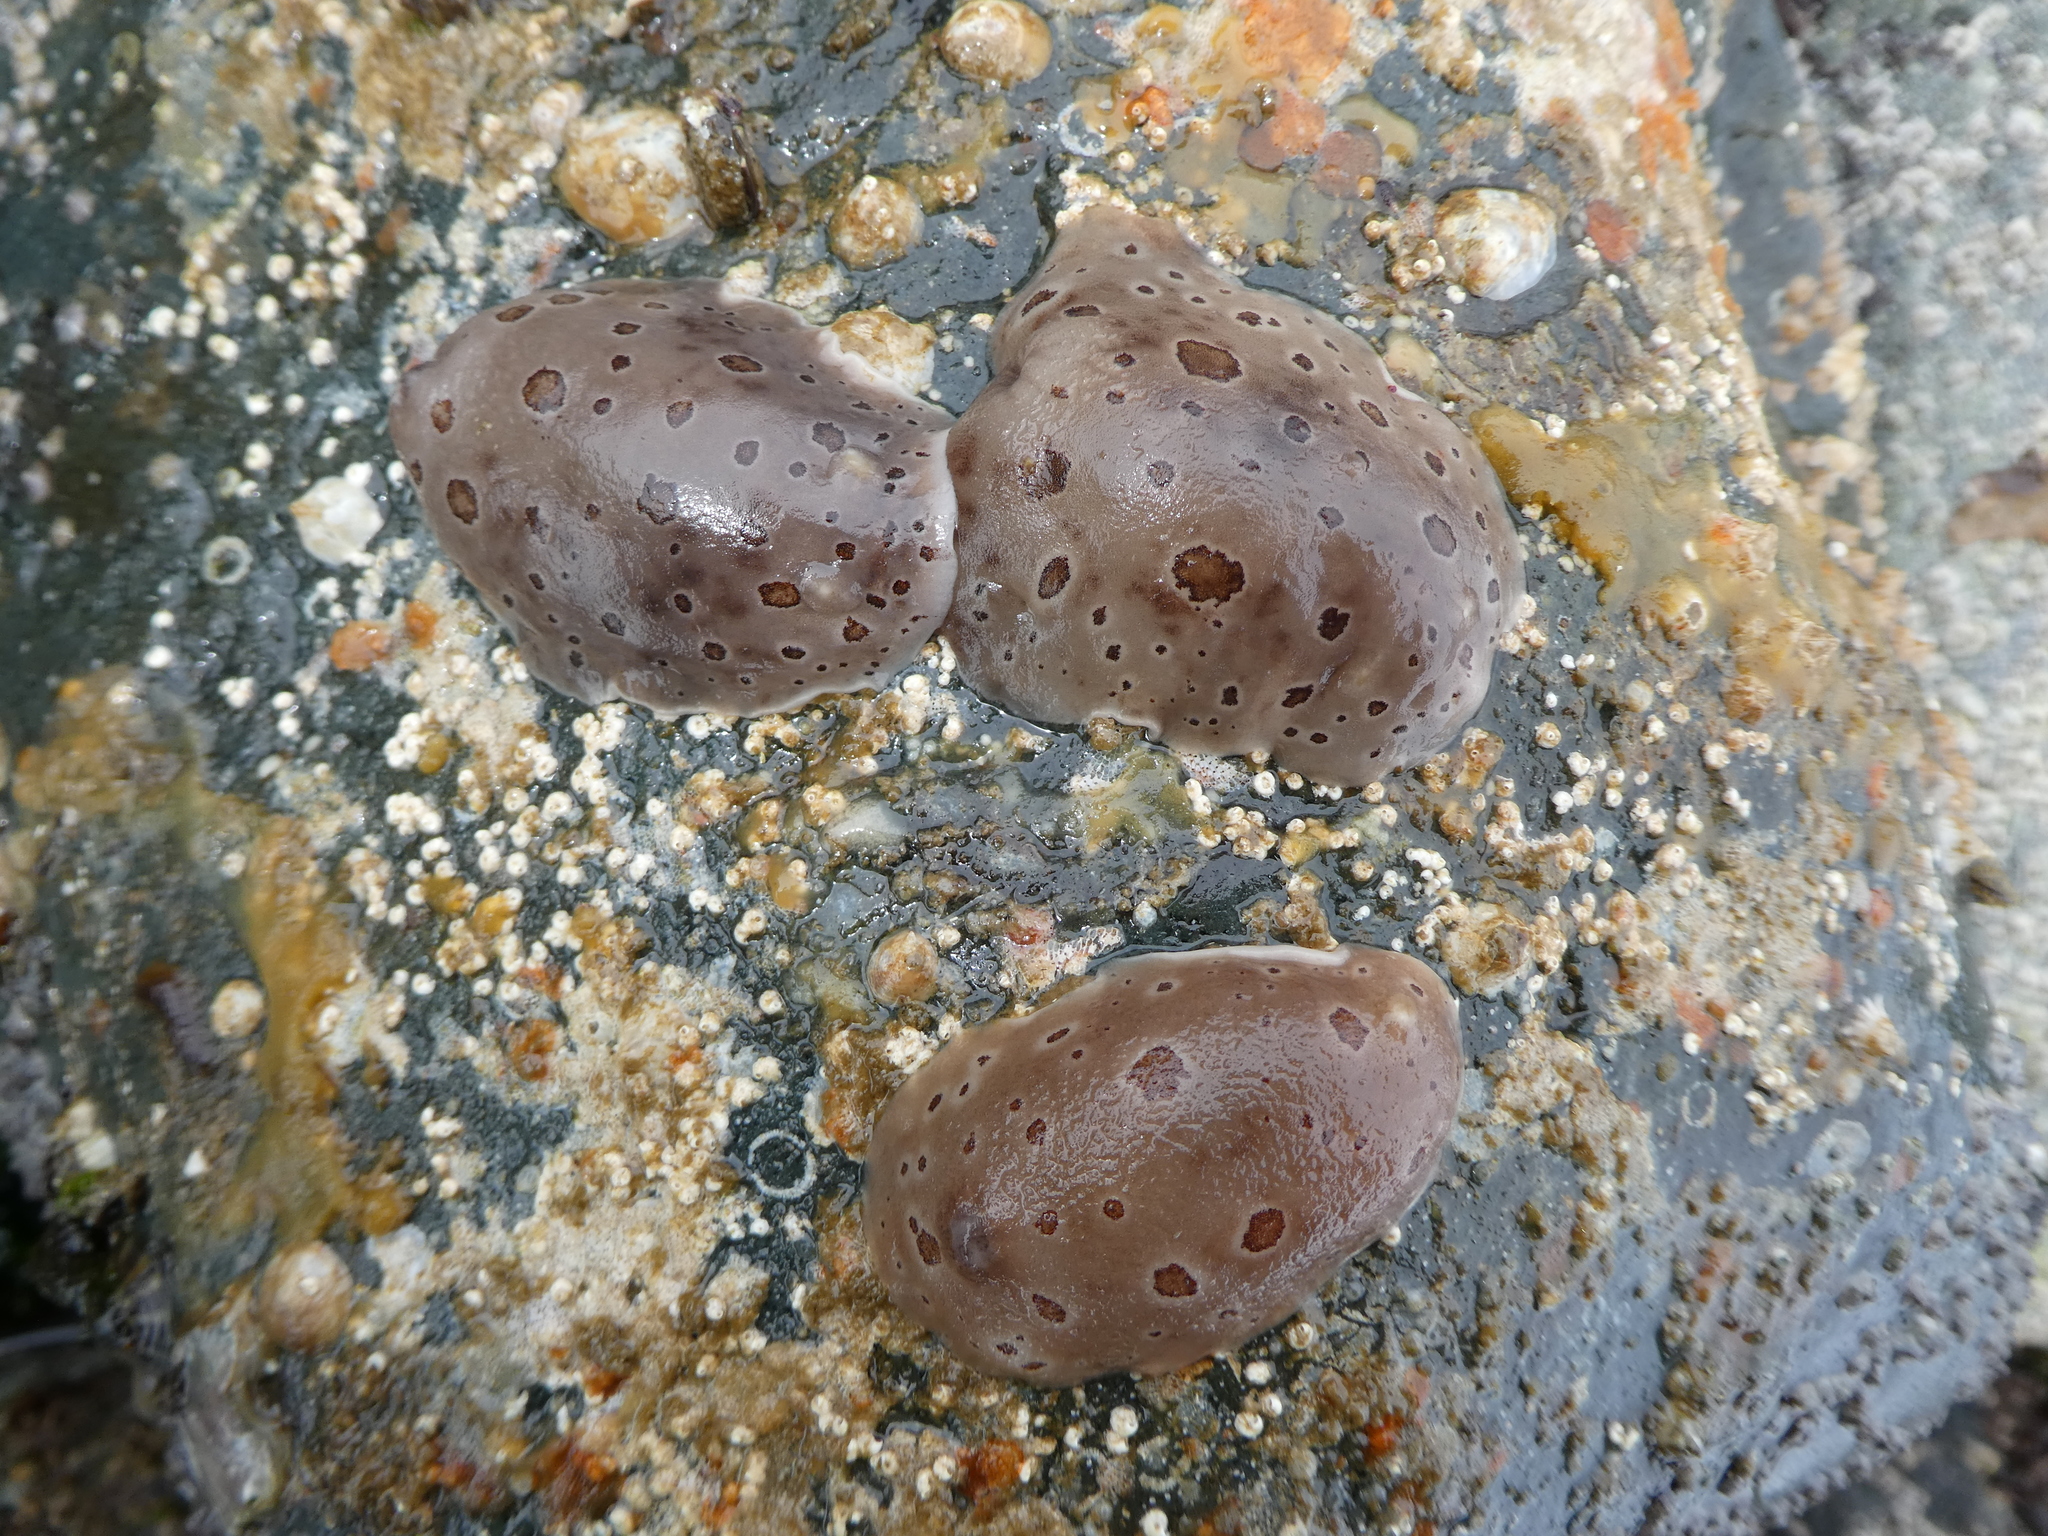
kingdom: Animalia
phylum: Mollusca
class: Gastropoda
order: Nudibranchia
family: Discodorididae
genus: Diaulula
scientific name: Diaulula odonoghuei
